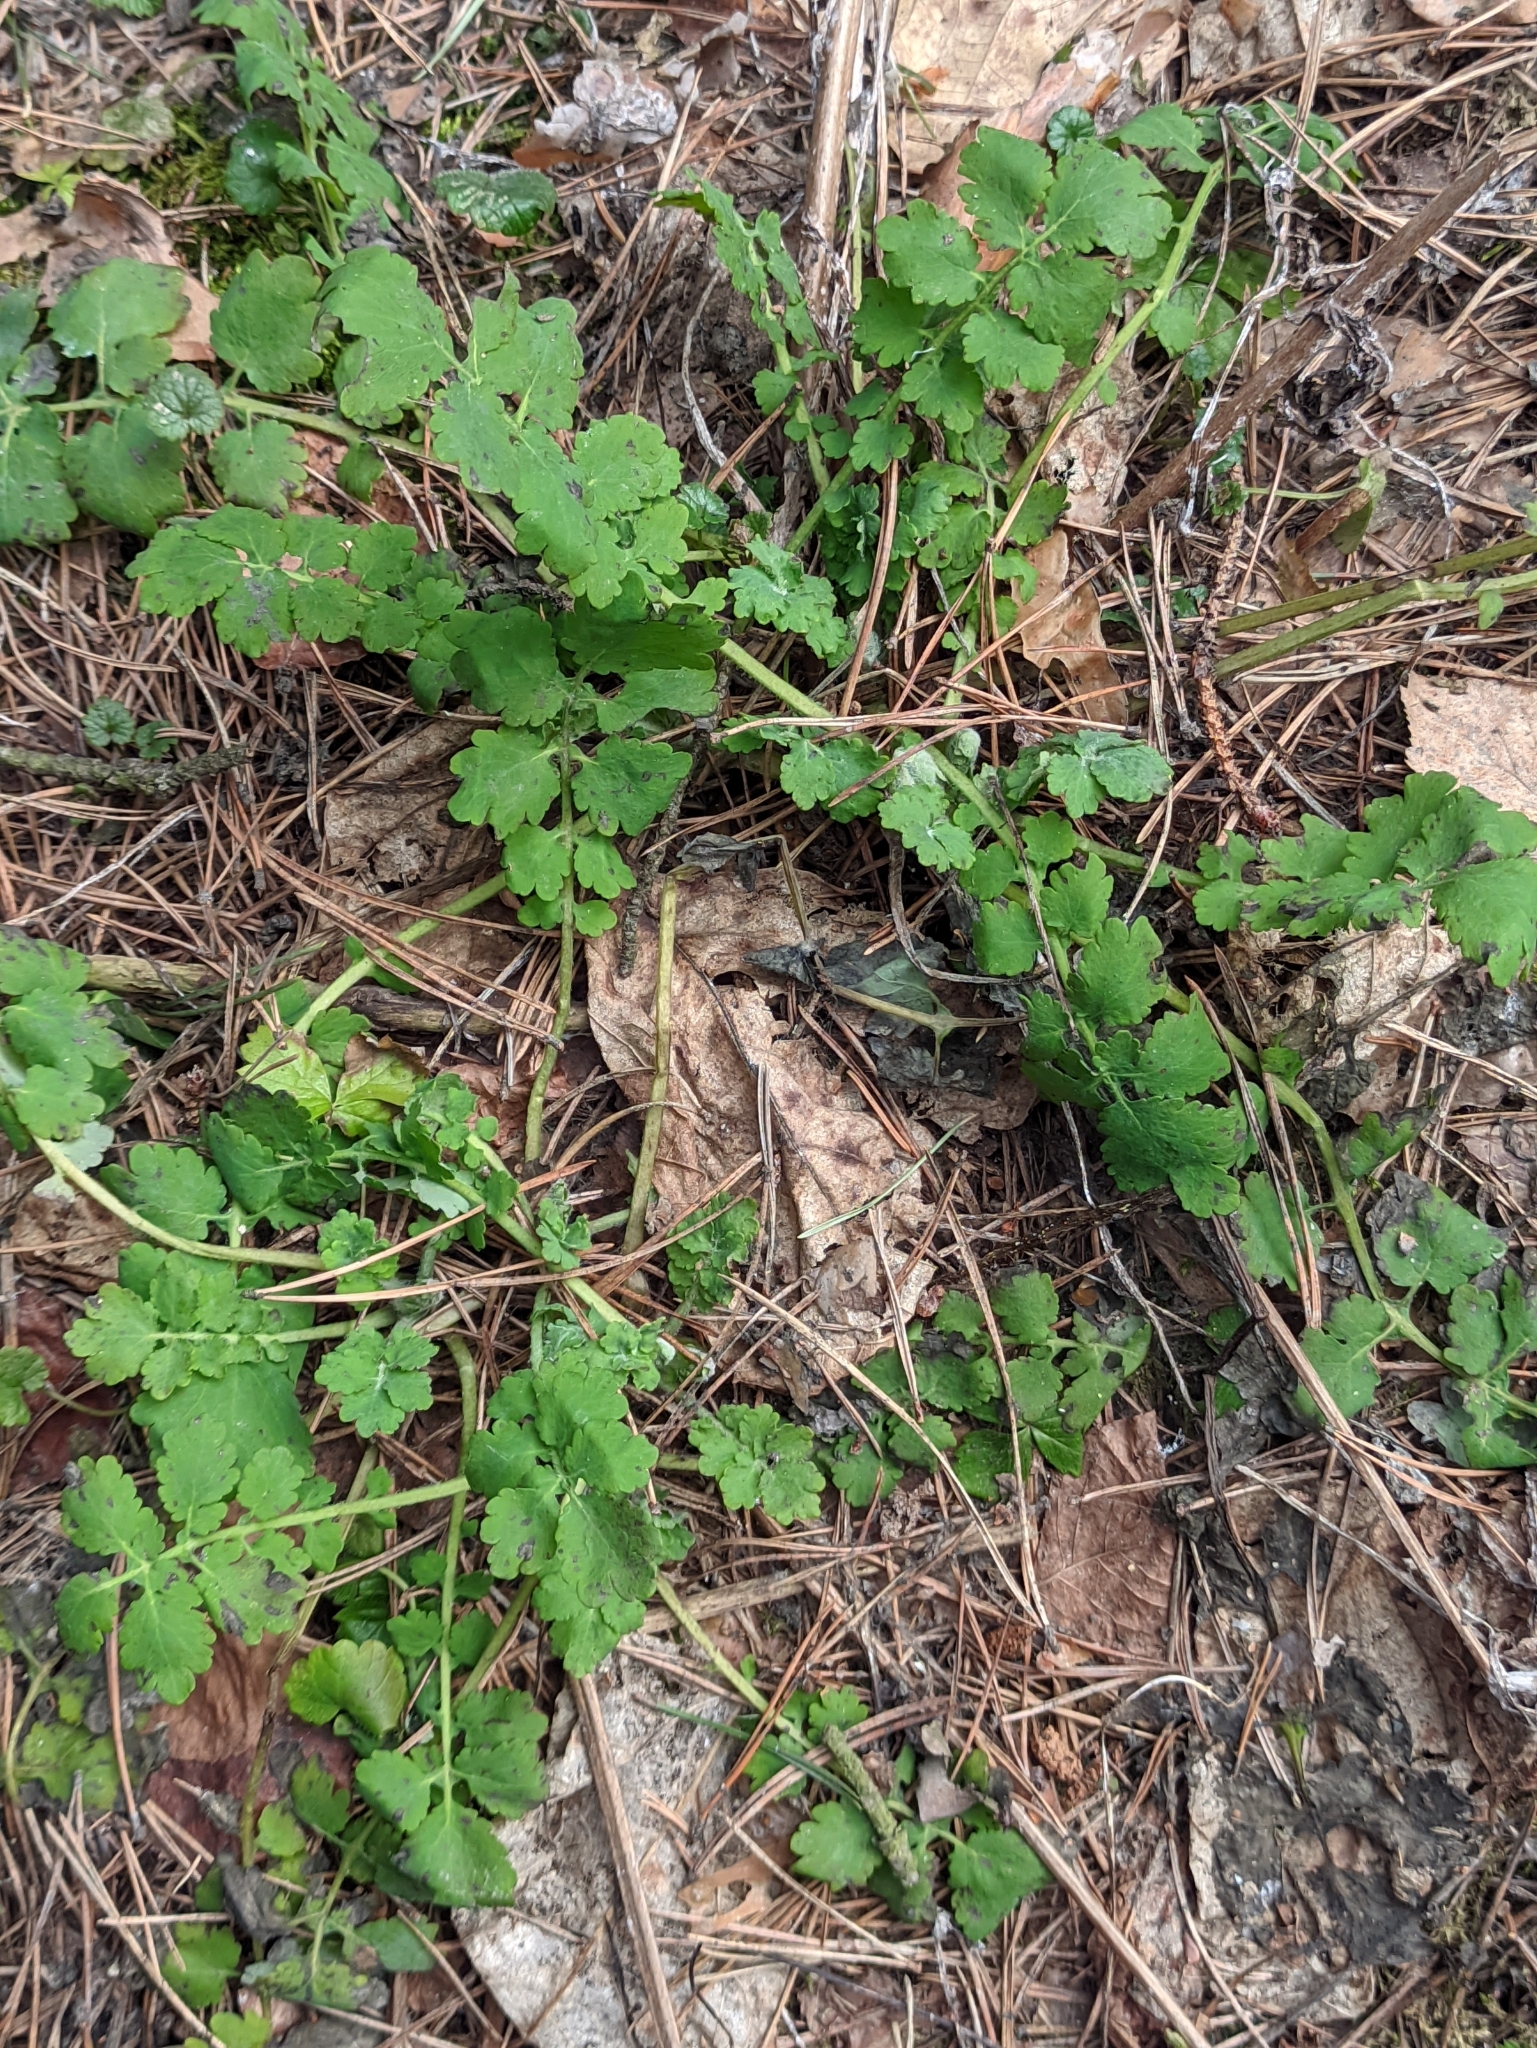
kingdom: Plantae
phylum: Tracheophyta
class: Magnoliopsida
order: Ranunculales
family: Papaveraceae
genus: Chelidonium
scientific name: Chelidonium majus
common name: Greater celandine
